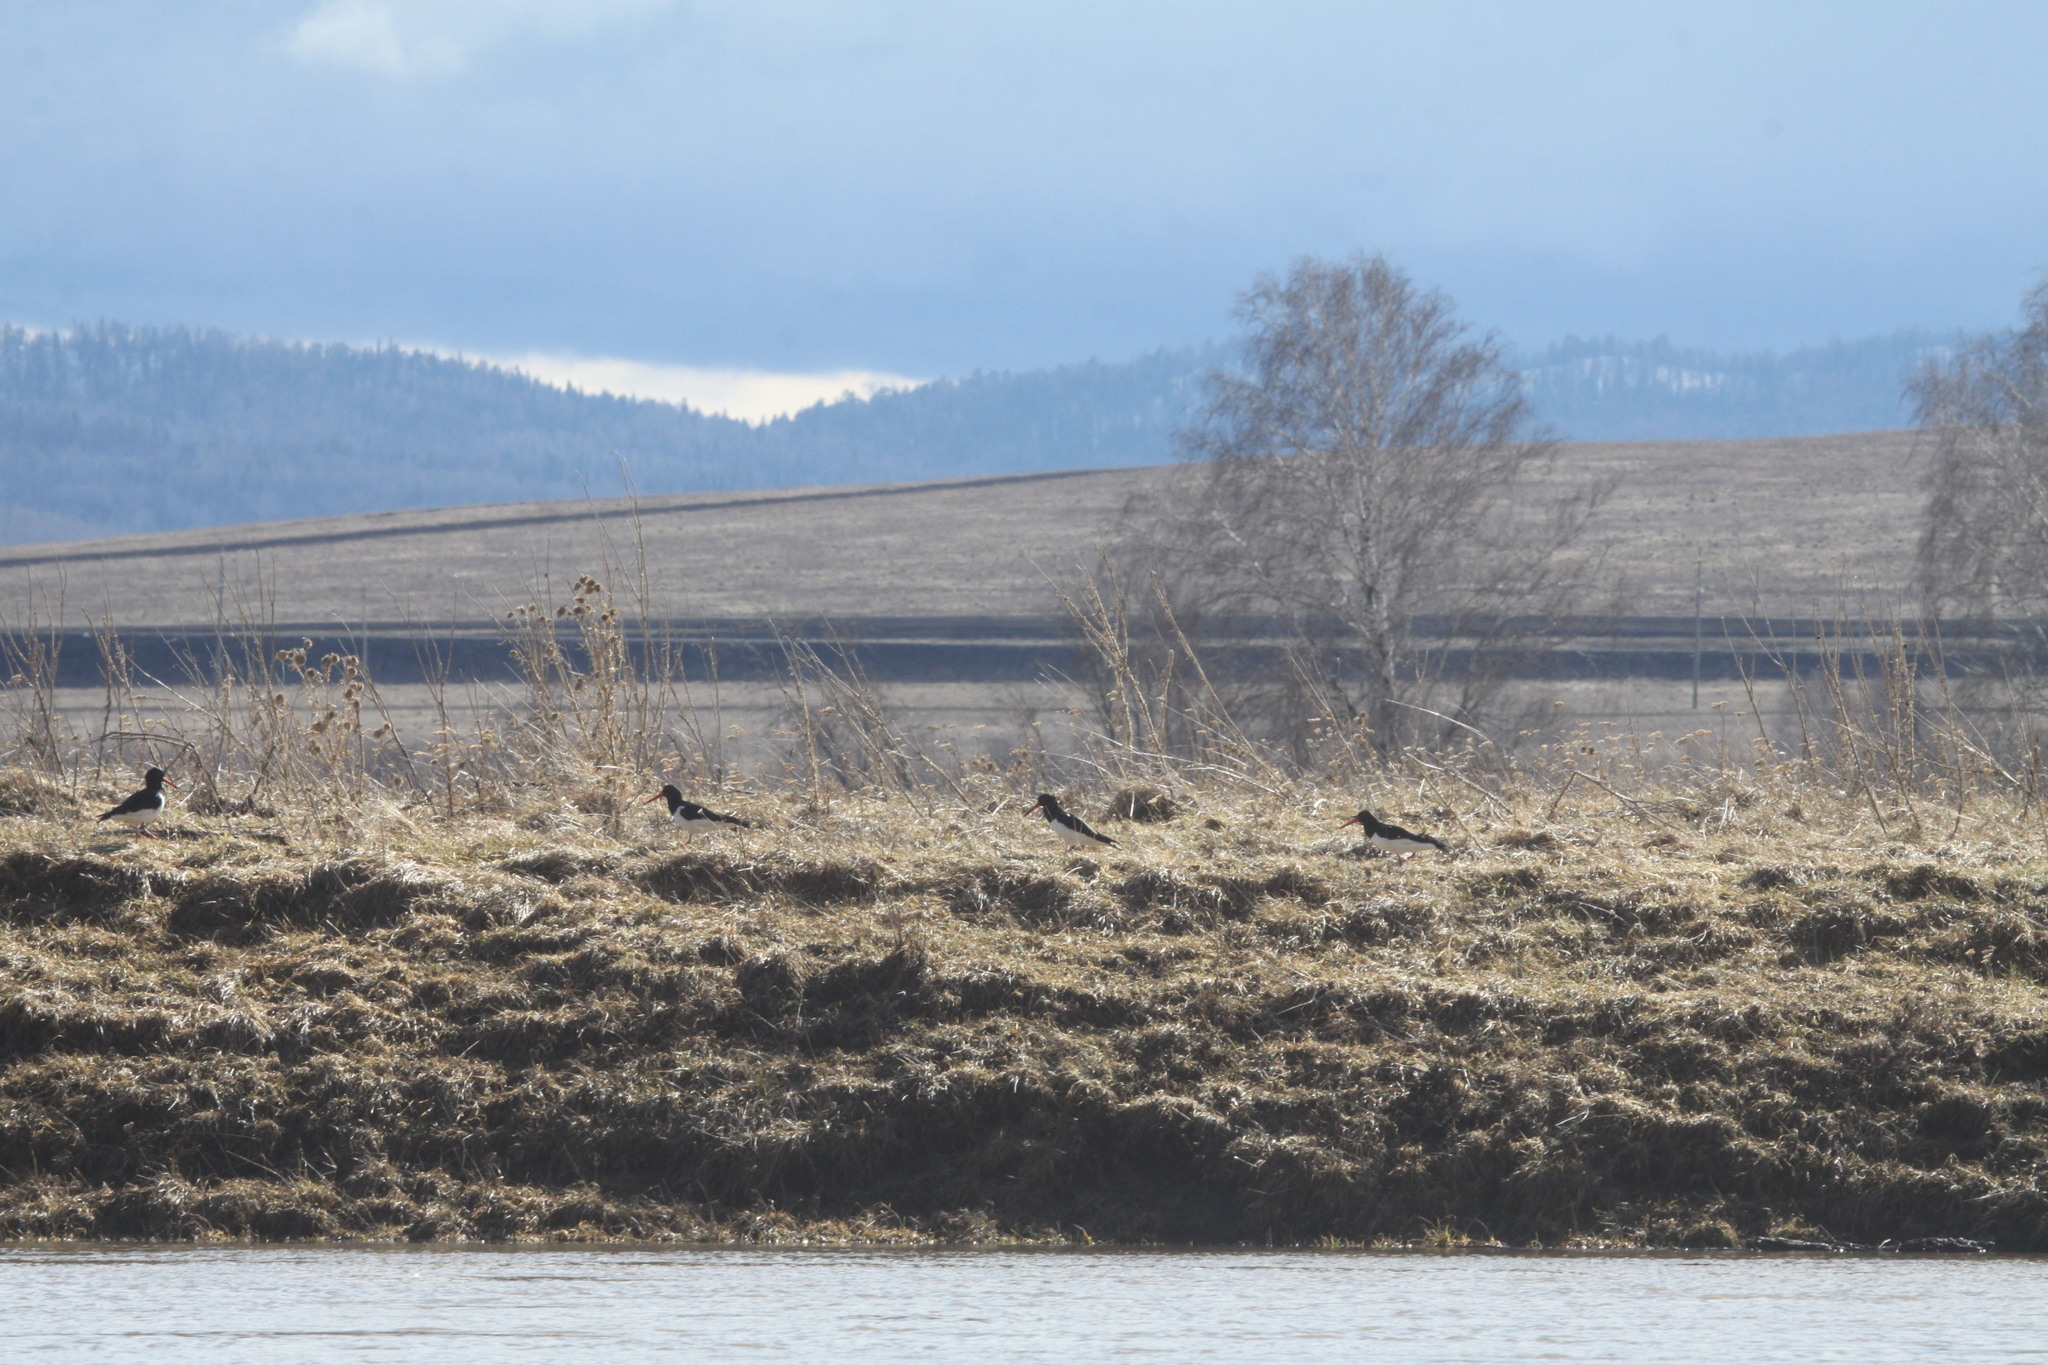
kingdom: Animalia
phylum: Chordata
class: Aves
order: Charadriiformes
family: Haematopodidae
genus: Haematopus
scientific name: Haematopus ostralegus
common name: Eurasian oystercatcher
